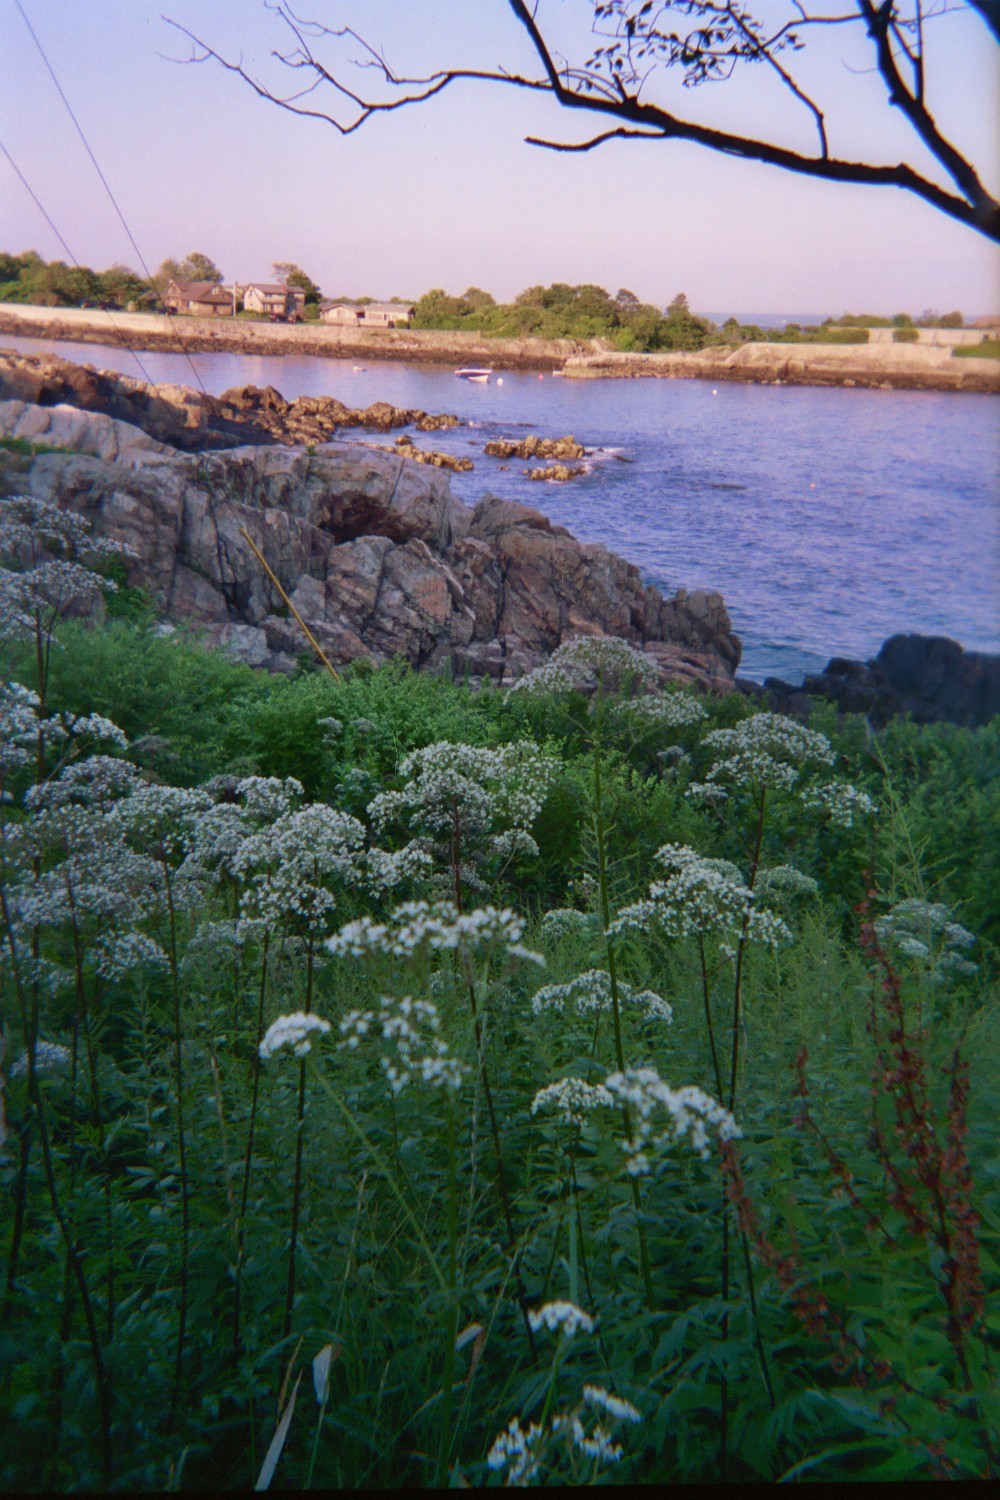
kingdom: Plantae
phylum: Tracheophyta
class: Magnoliopsida
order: Dipsacales
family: Caprifoliaceae
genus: Valeriana
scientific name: Valeriana officinalis
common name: Common valerian
